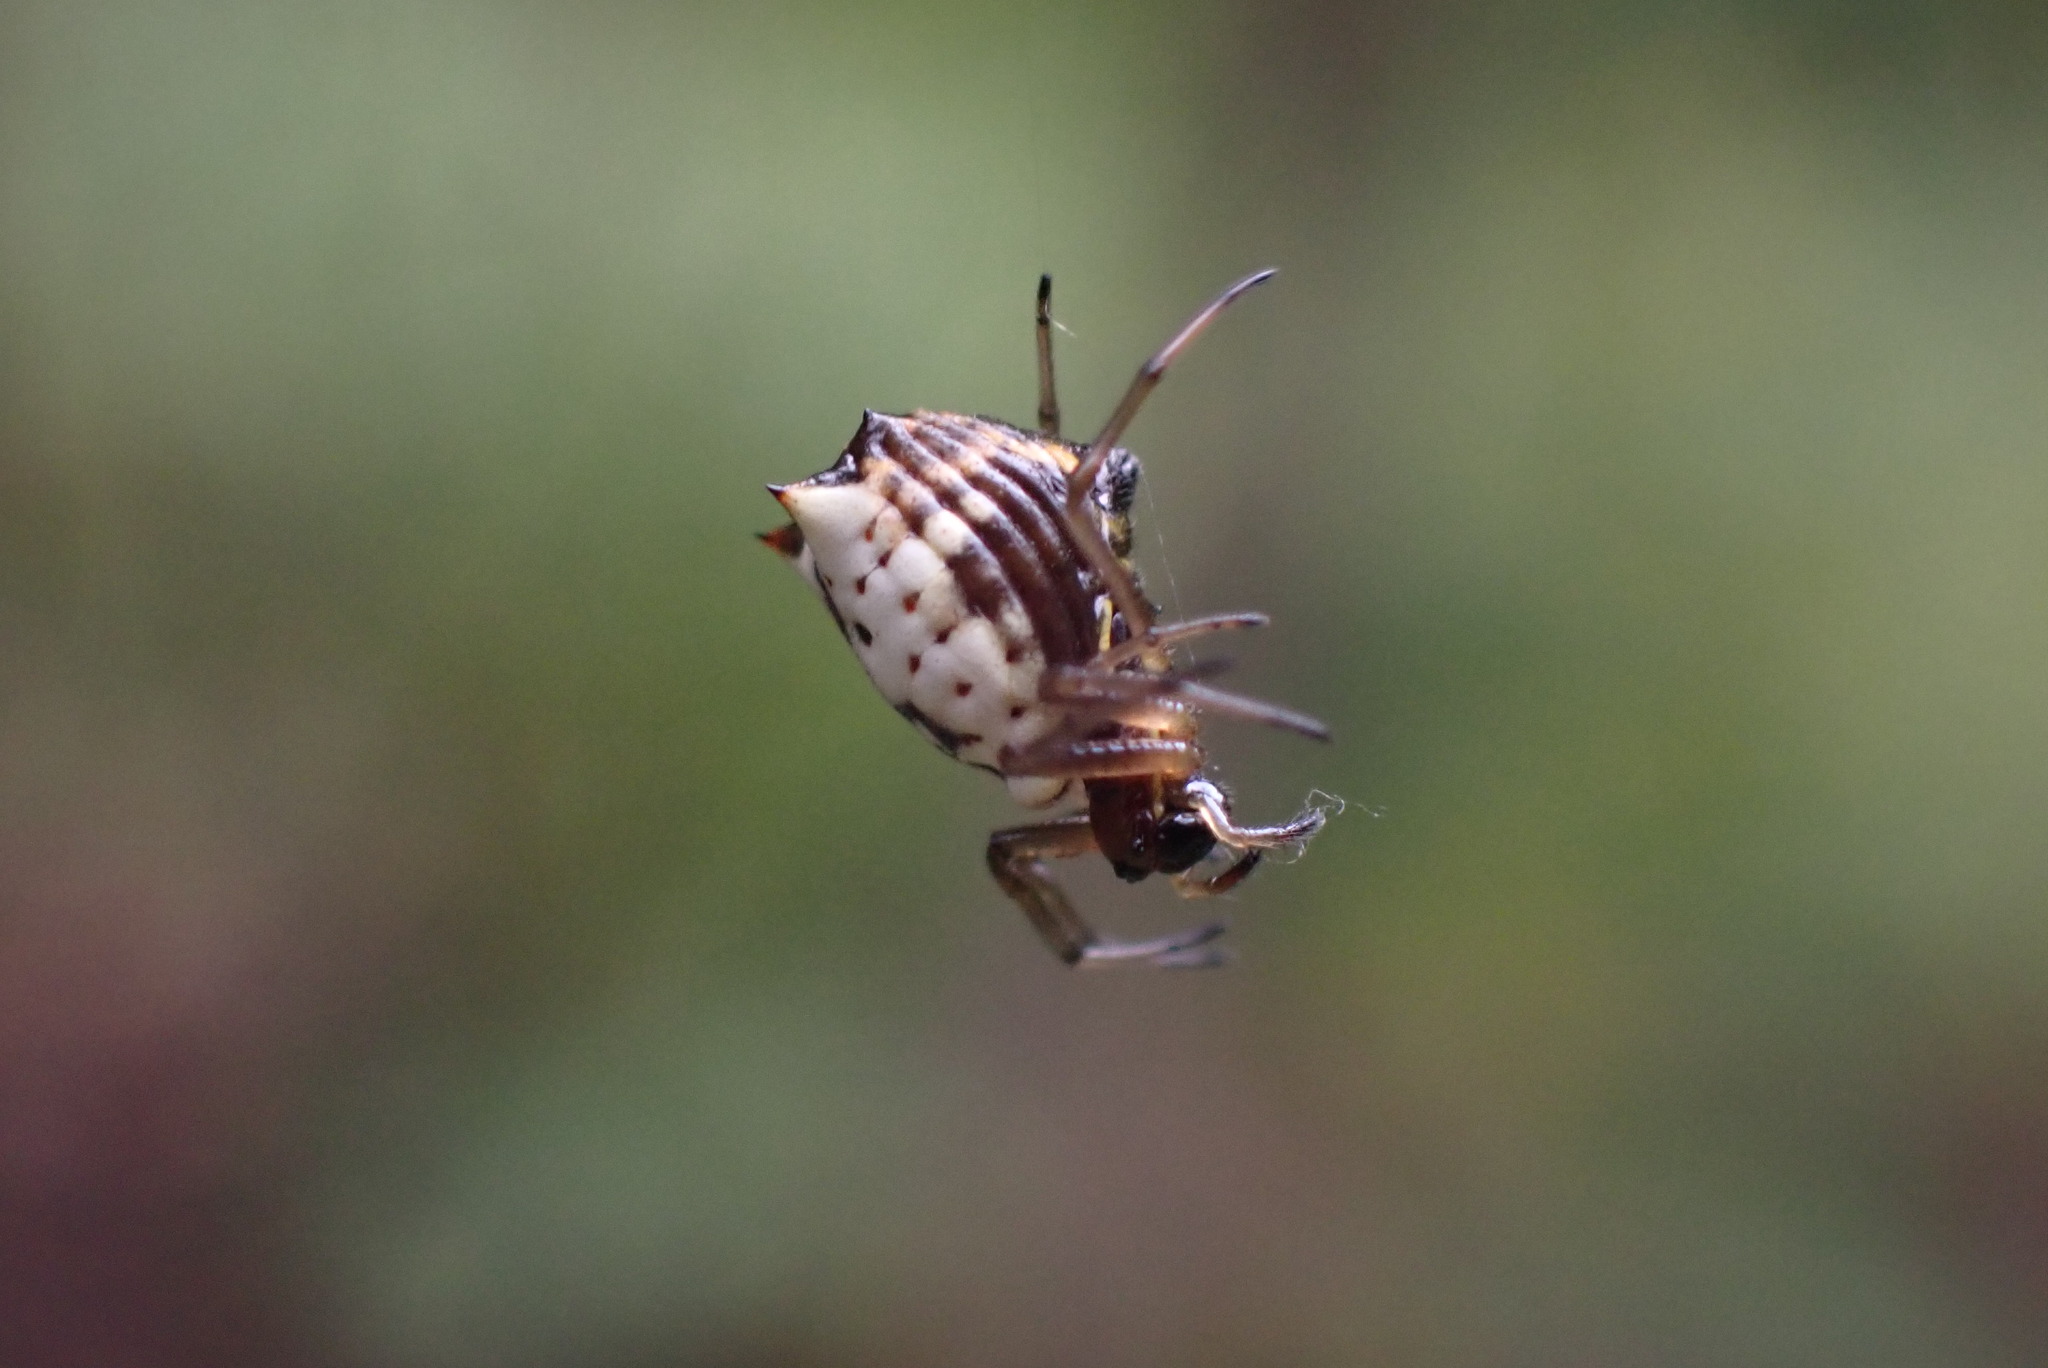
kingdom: Animalia
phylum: Arthropoda
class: Arachnida
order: Araneae
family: Araneidae
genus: Micrathena
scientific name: Micrathena mitrata
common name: Orb weavers
